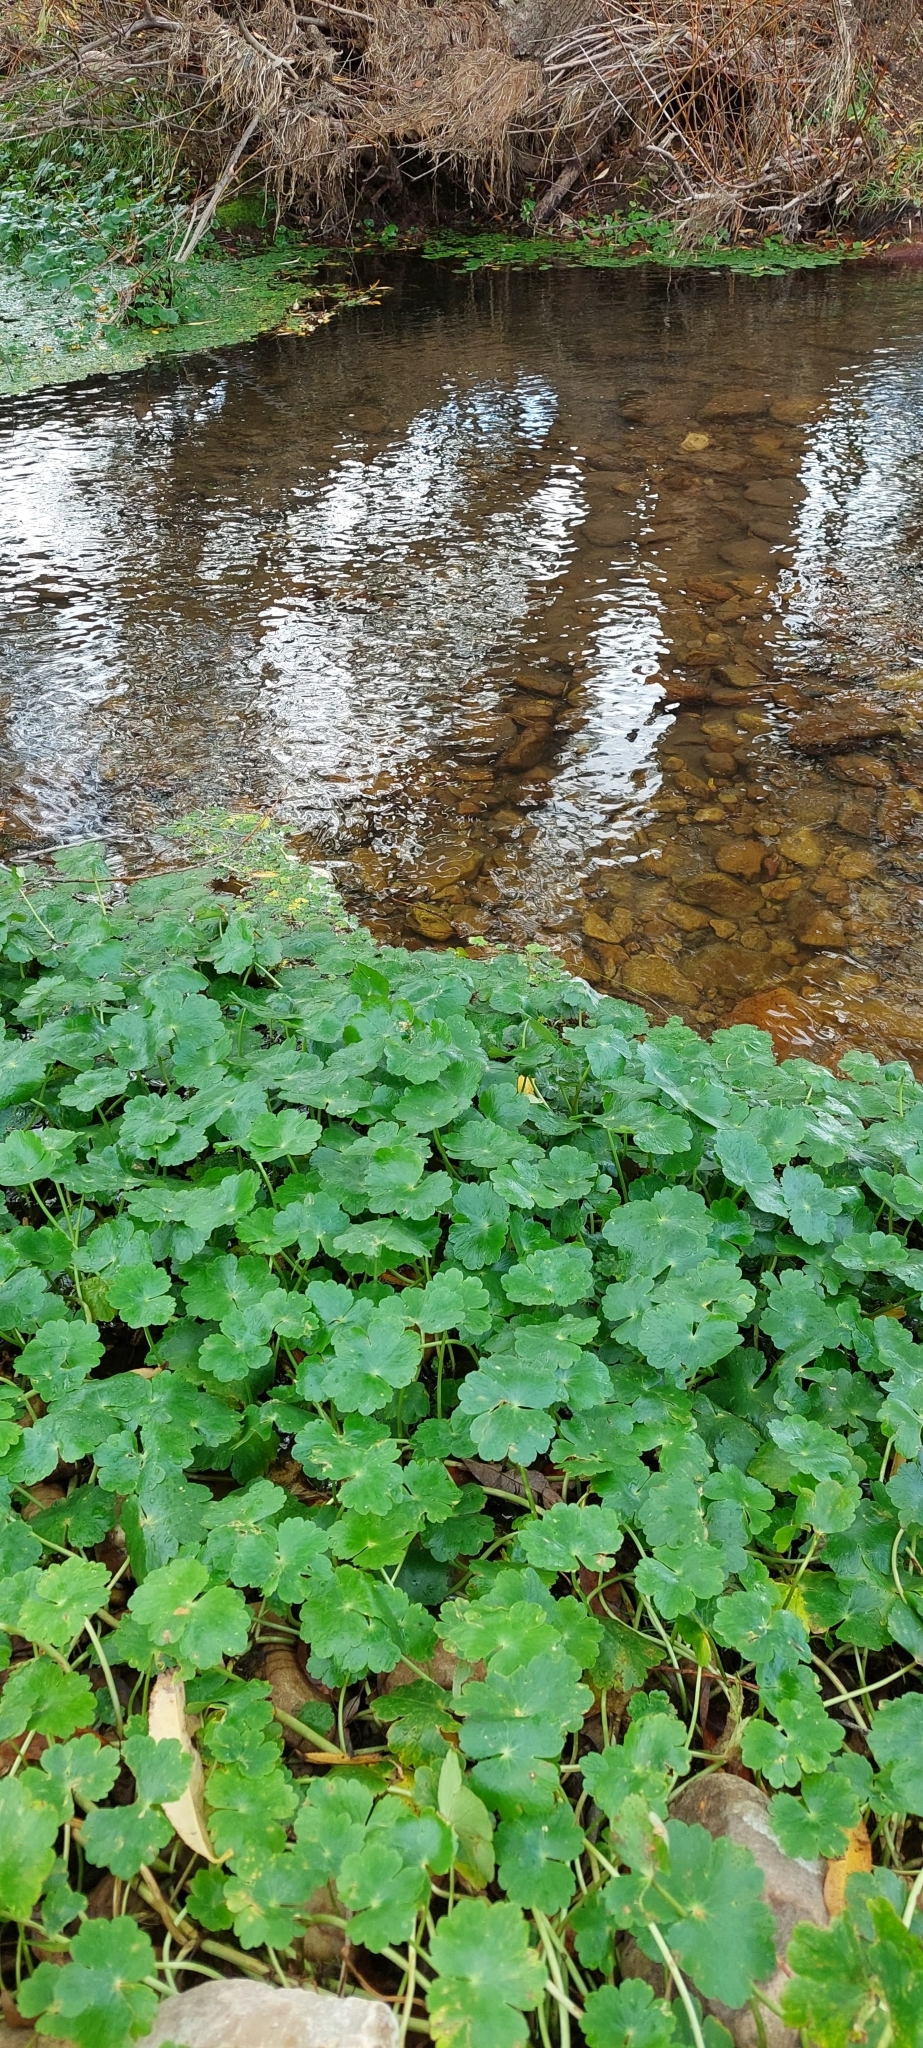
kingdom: Plantae
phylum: Tracheophyta
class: Magnoliopsida
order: Apiales
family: Araliaceae
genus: Hydrocotyle
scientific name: Hydrocotyle ranunculoides
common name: Floating pennywort
